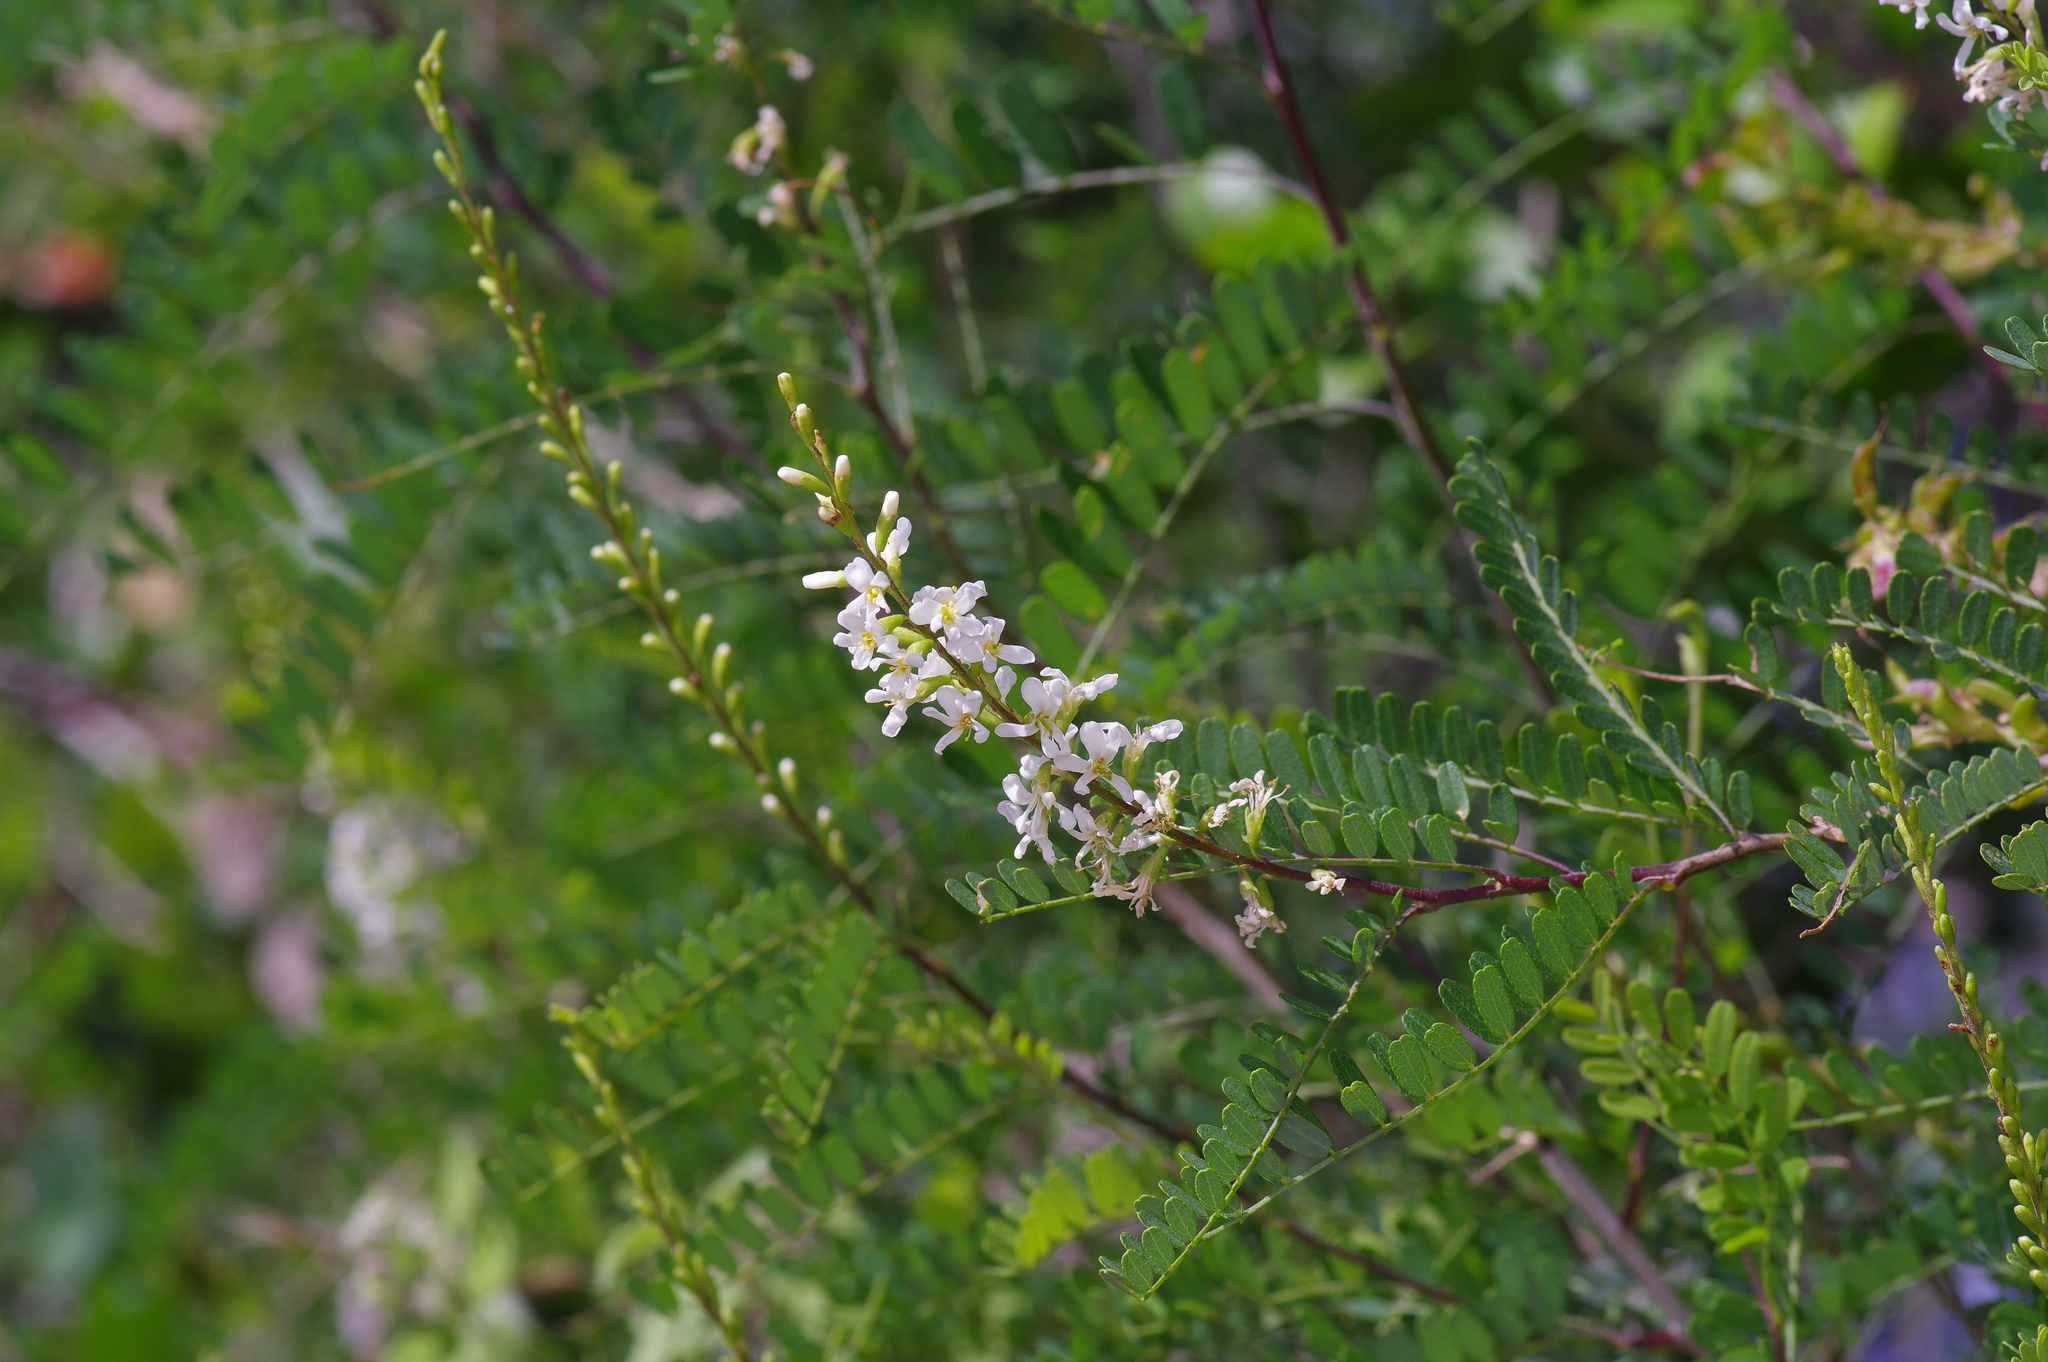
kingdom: Plantae
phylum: Tracheophyta
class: Magnoliopsida
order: Fabales
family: Fabaceae
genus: Eysenhardtia
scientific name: Eysenhardtia texana
